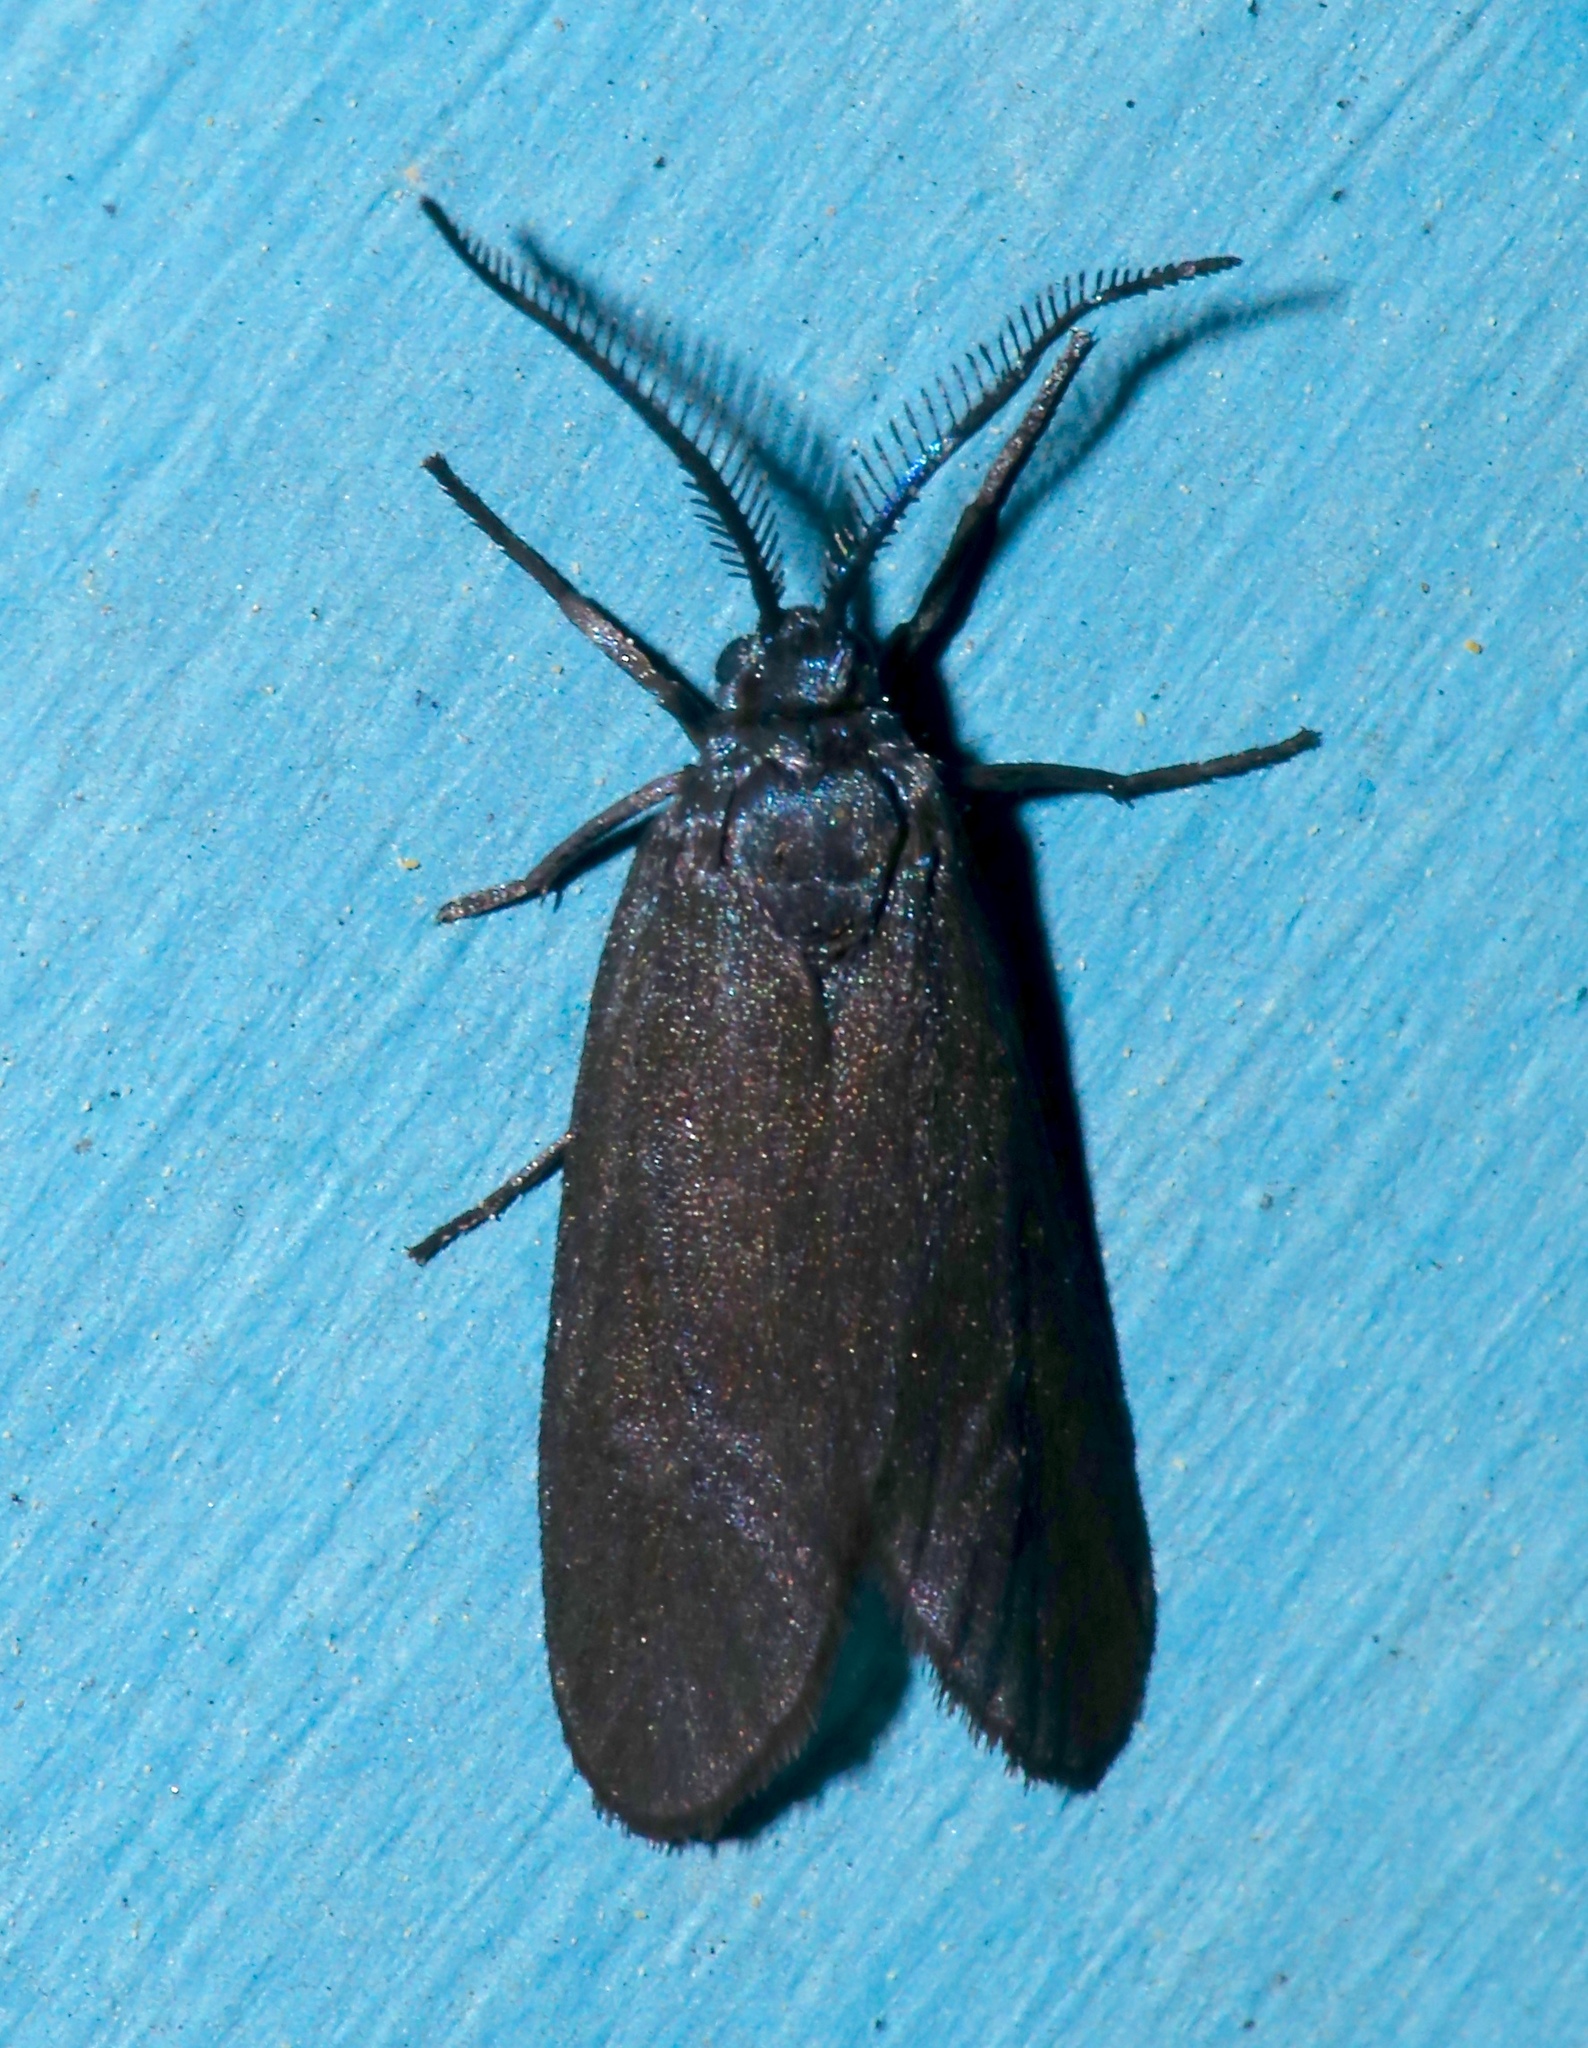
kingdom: Animalia
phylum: Arthropoda
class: Insecta
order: Lepidoptera
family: Zygaenidae
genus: Neoprocris
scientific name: Neoprocris floridana
